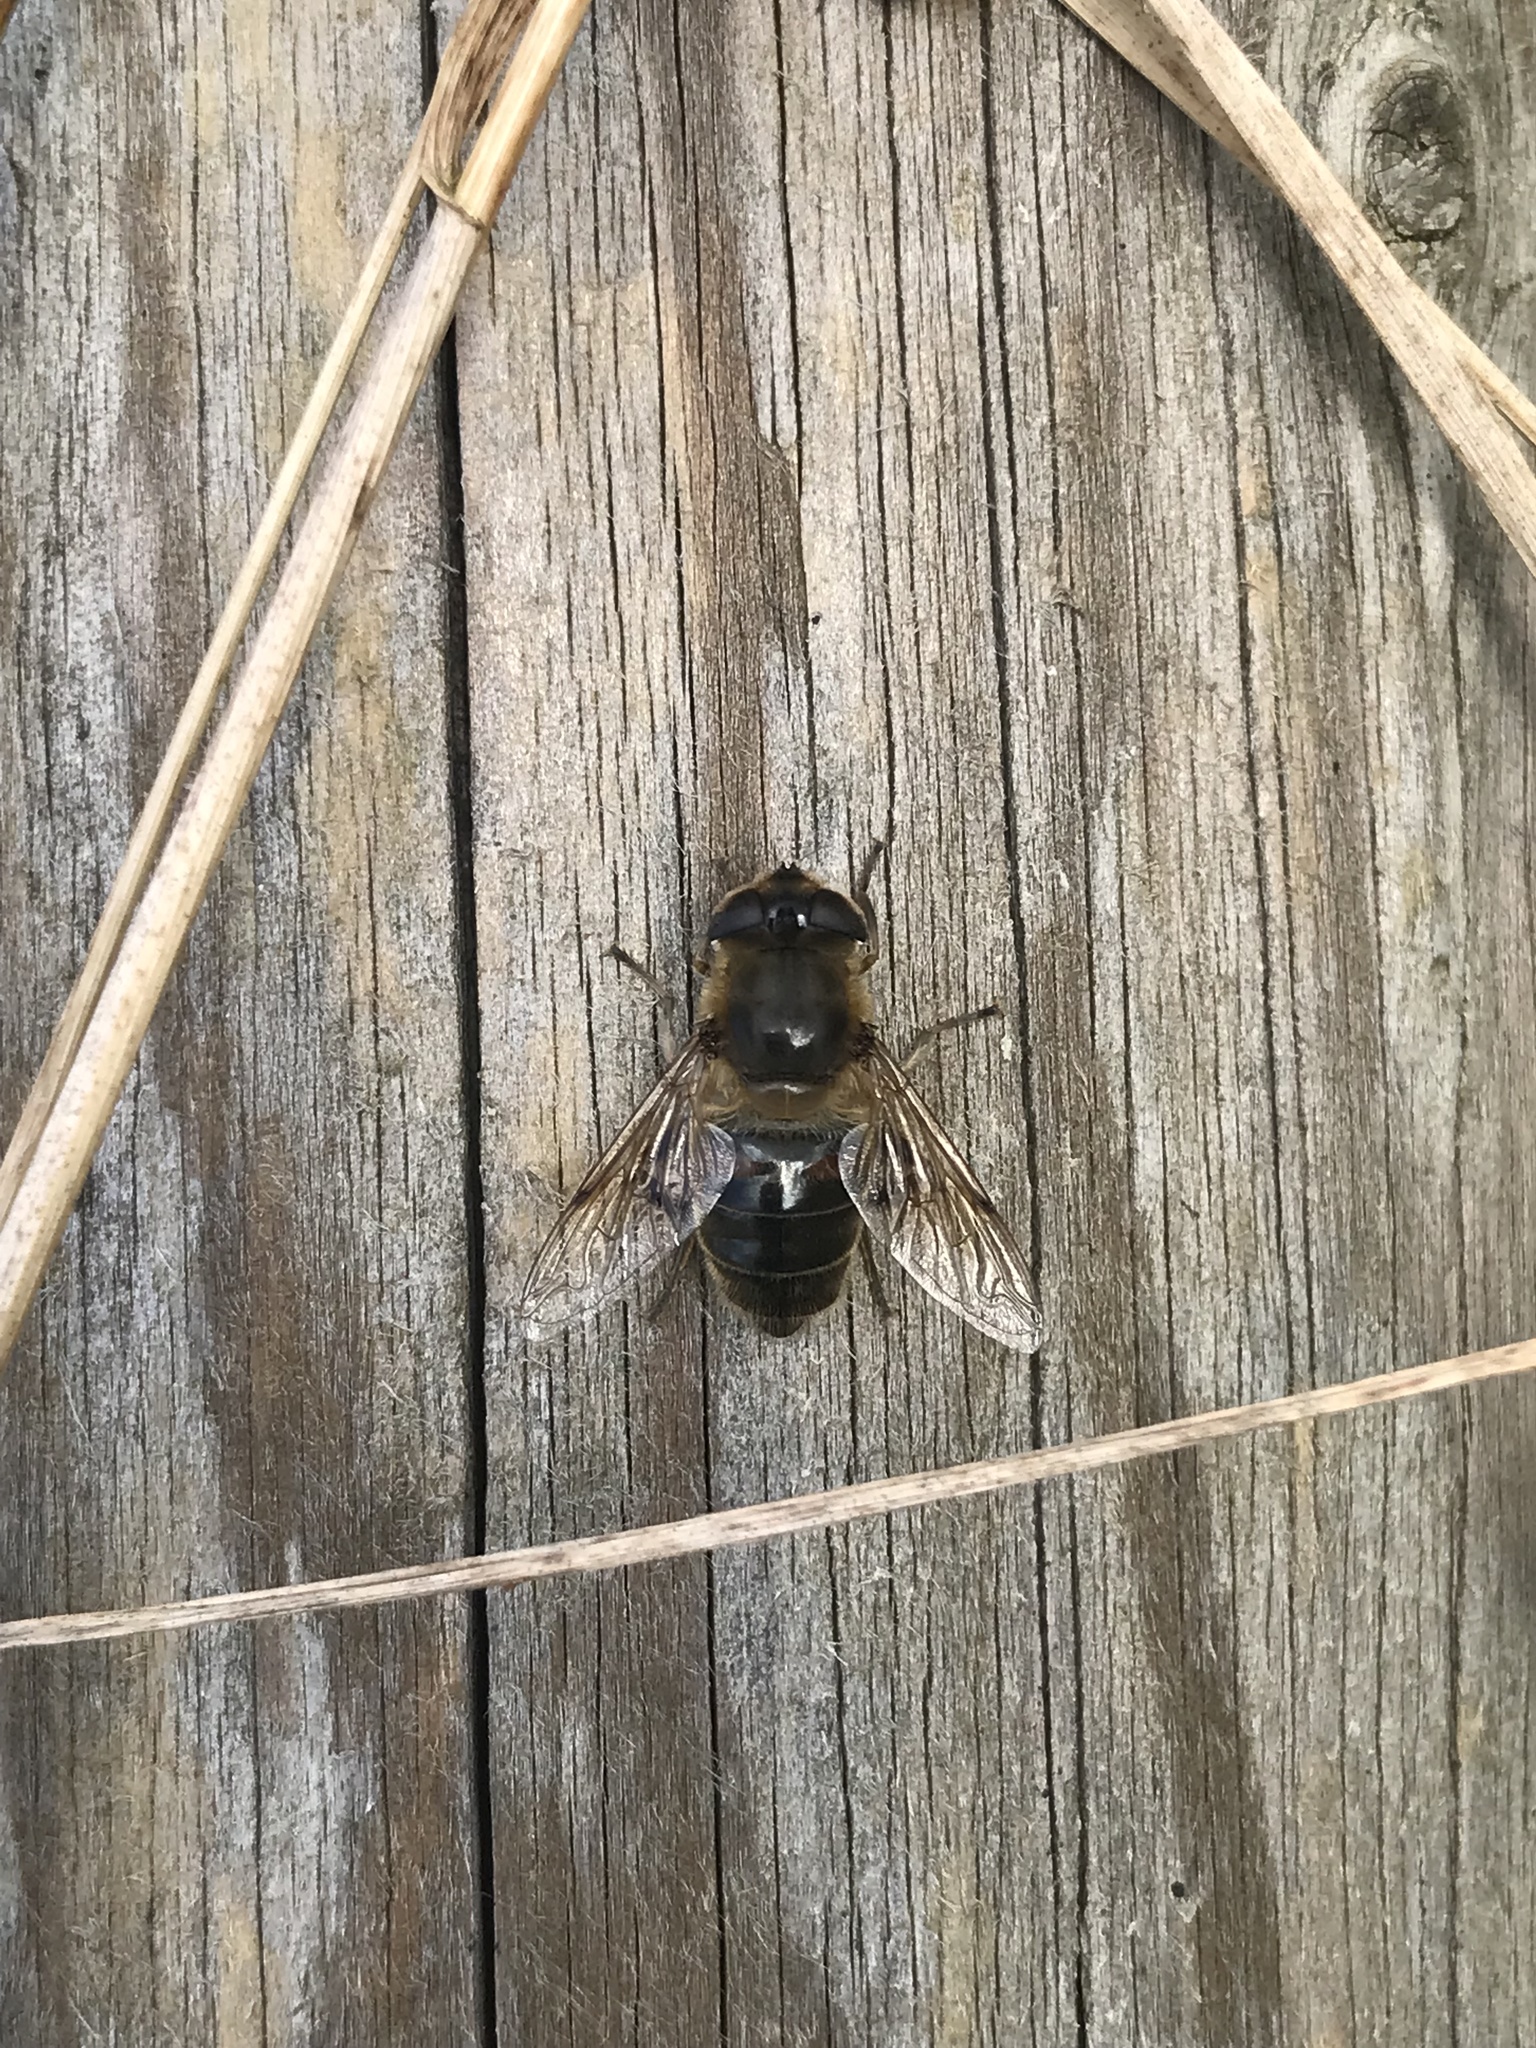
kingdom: Animalia
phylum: Arthropoda
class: Insecta
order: Diptera
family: Syrphidae
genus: Eristalis
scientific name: Eristalis tenax
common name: Drone fly
